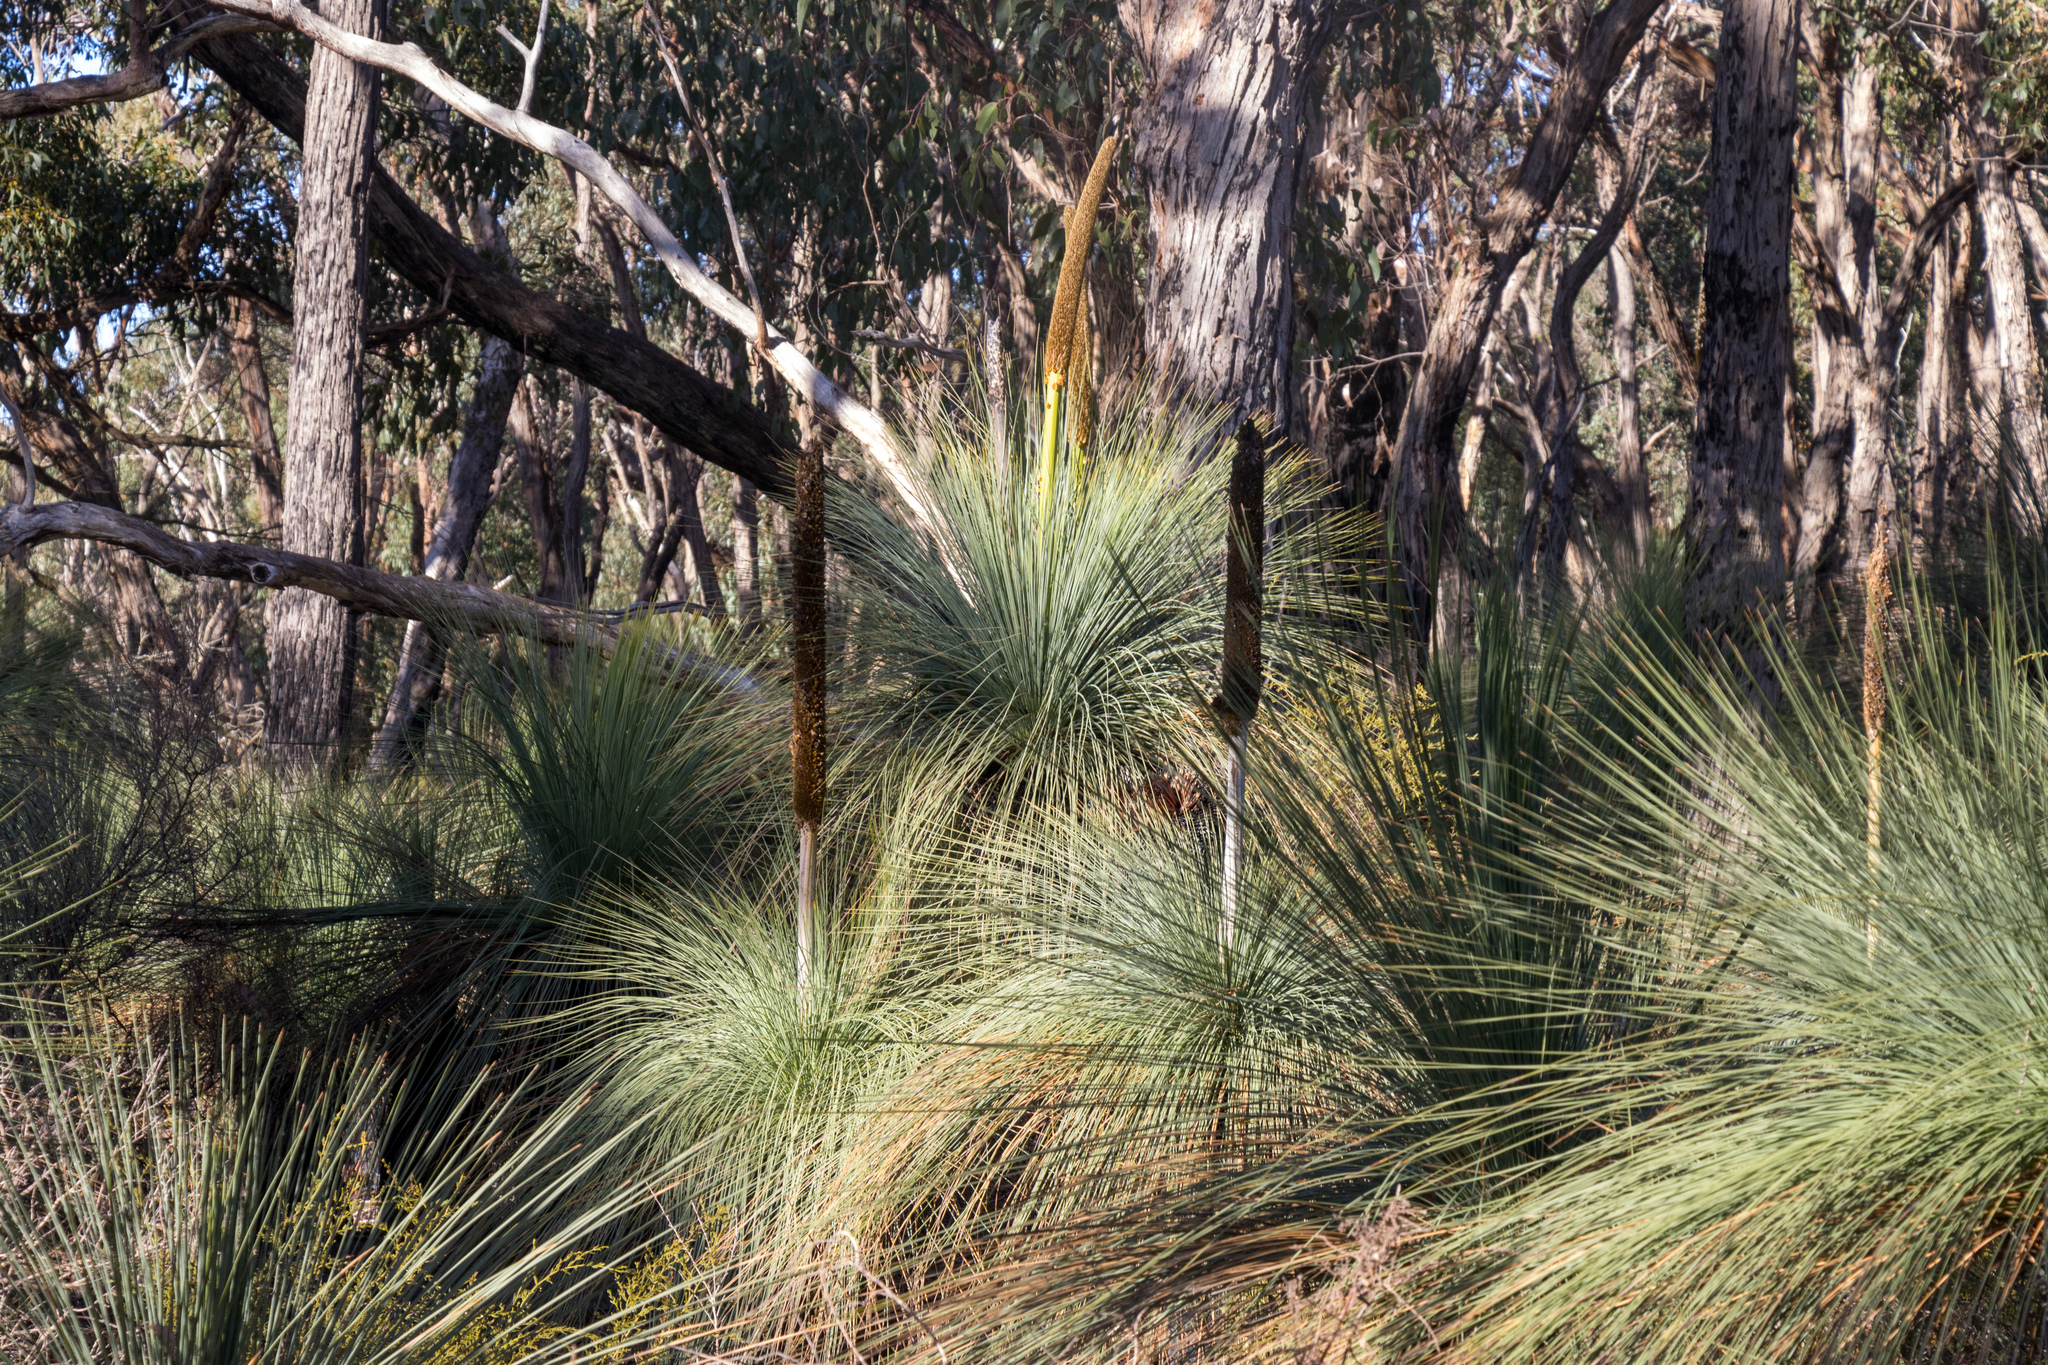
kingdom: Plantae
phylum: Tracheophyta
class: Liliopsida
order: Asparagales
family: Asphodelaceae
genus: Xanthorrhoea
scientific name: Xanthorrhoea australis
